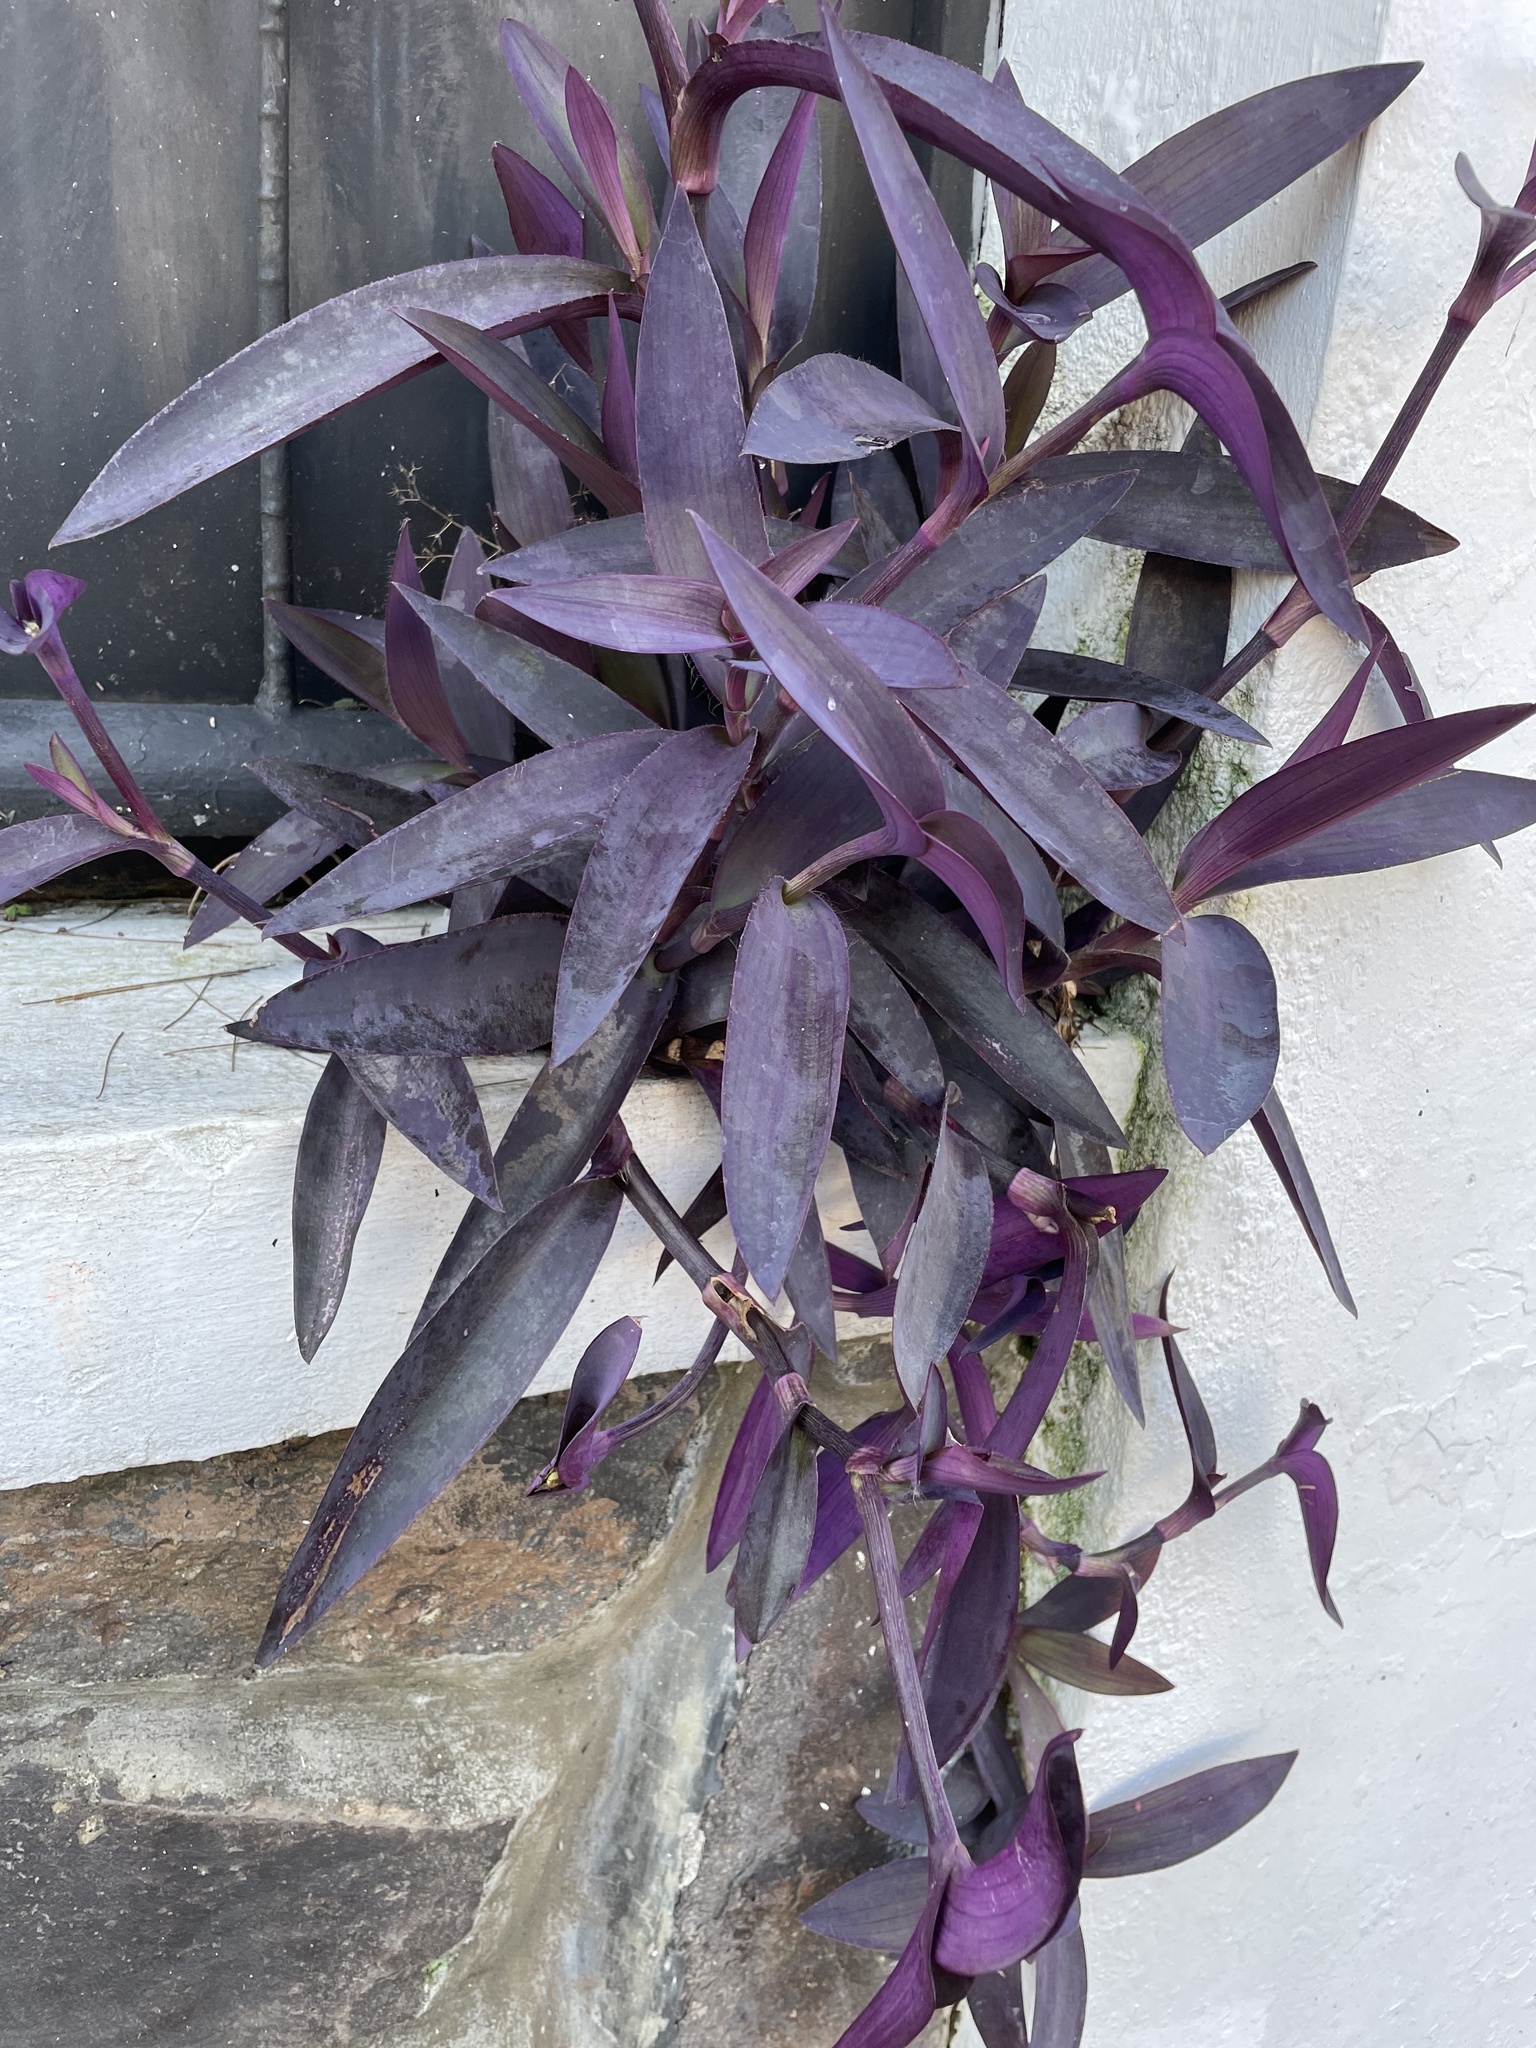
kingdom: Plantae
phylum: Tracheophyta
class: Liliopsida
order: Commelinales
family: Commelinaceae
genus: Tradescantia
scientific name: Tradescantia pallida
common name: Purpleheart
